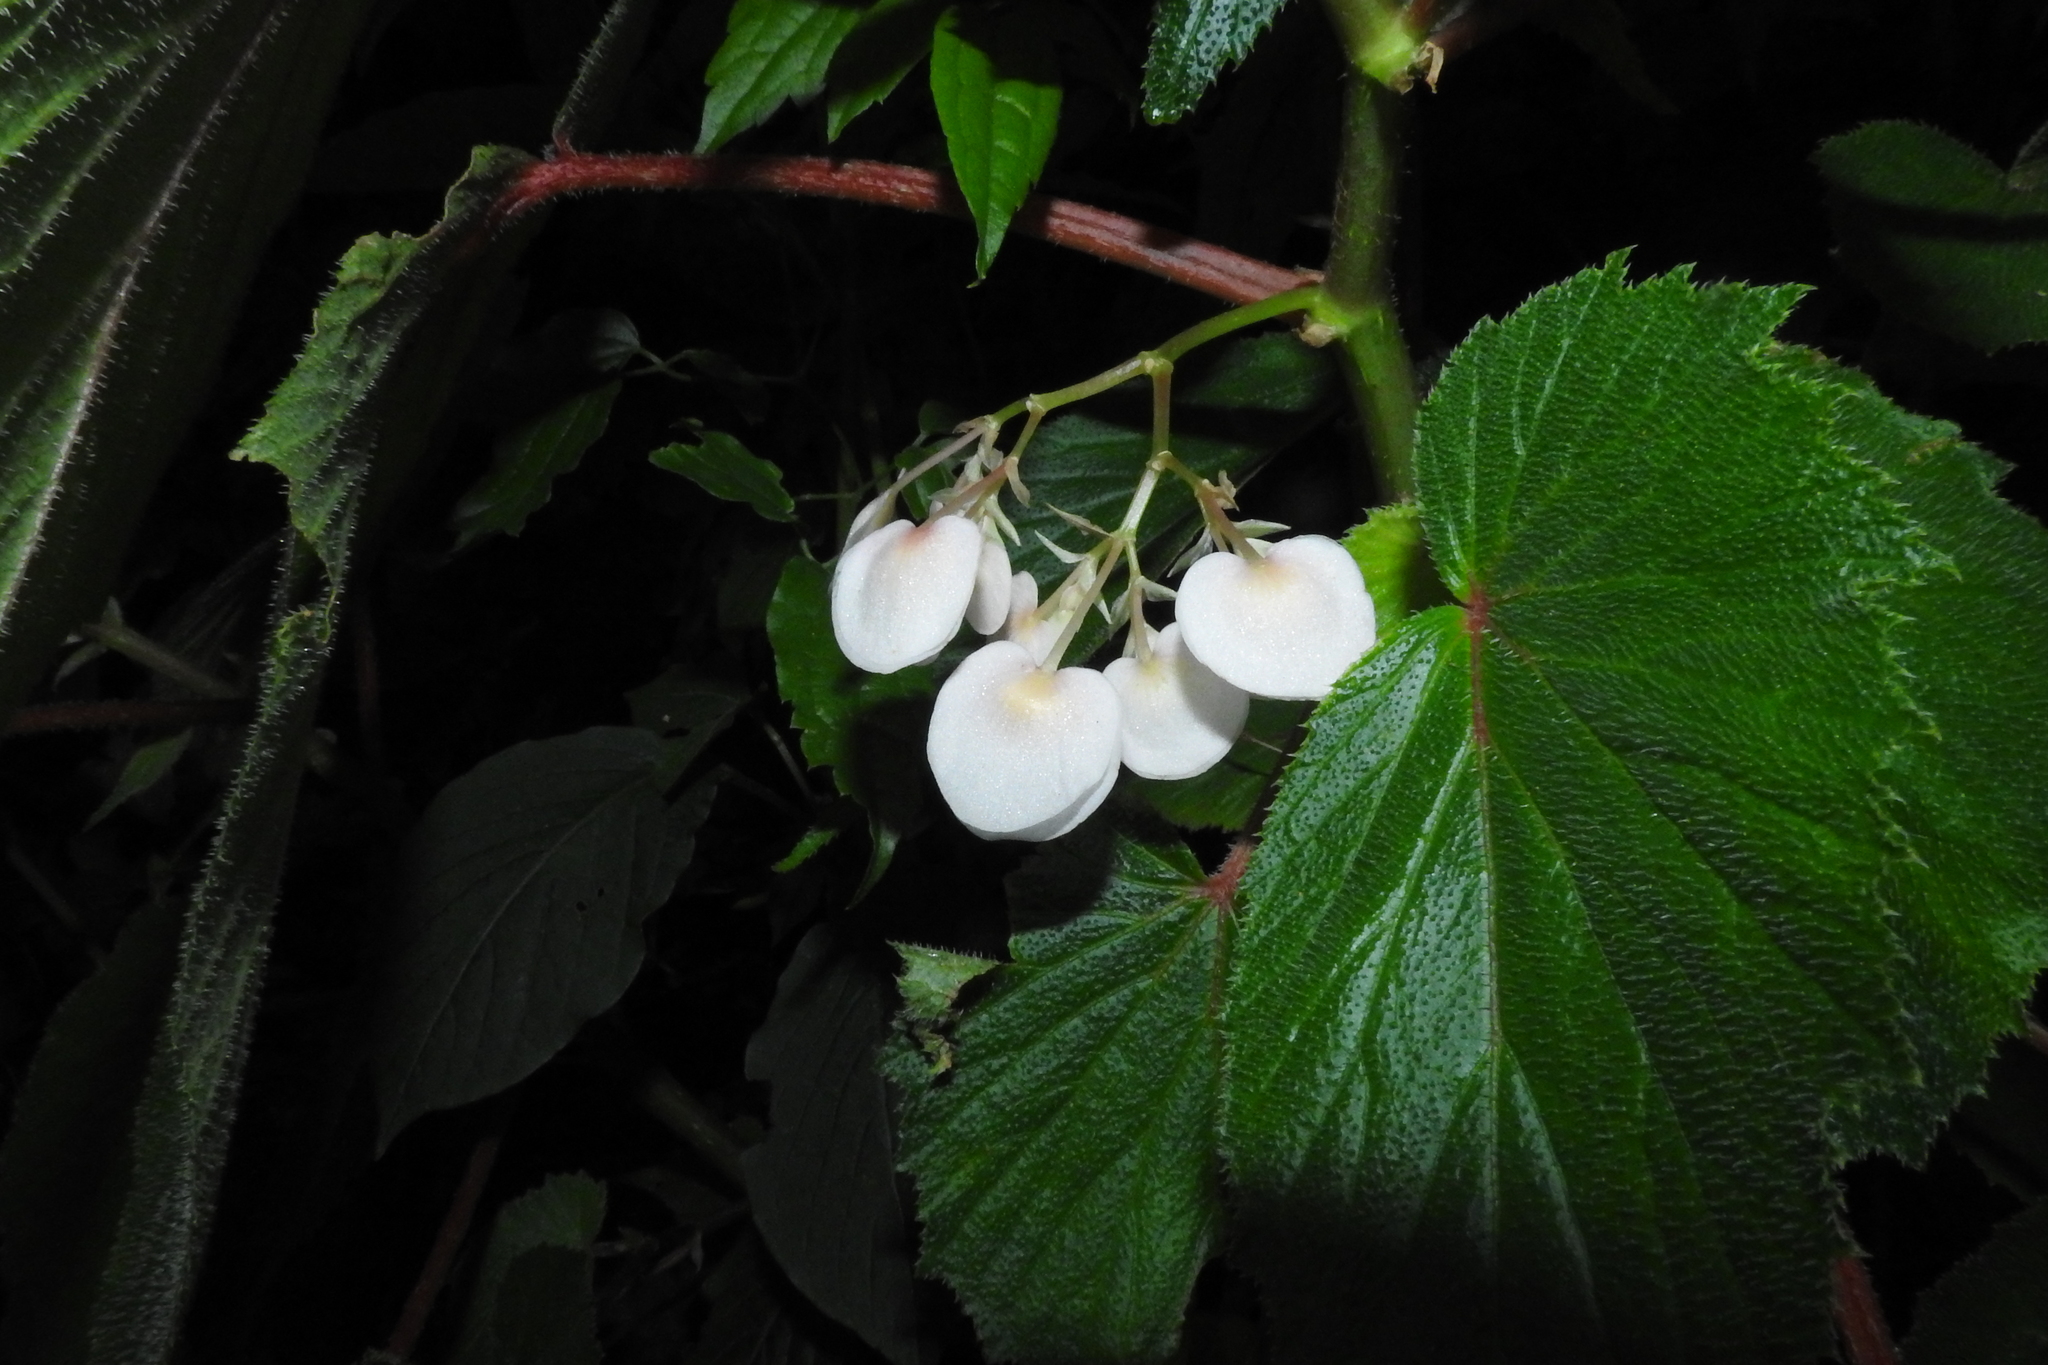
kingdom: Plantae
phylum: Tracheophyta
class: Magnoliopsida
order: Cucurbitales
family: Begoniaceae
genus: Begonia
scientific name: Begonia dipetala
